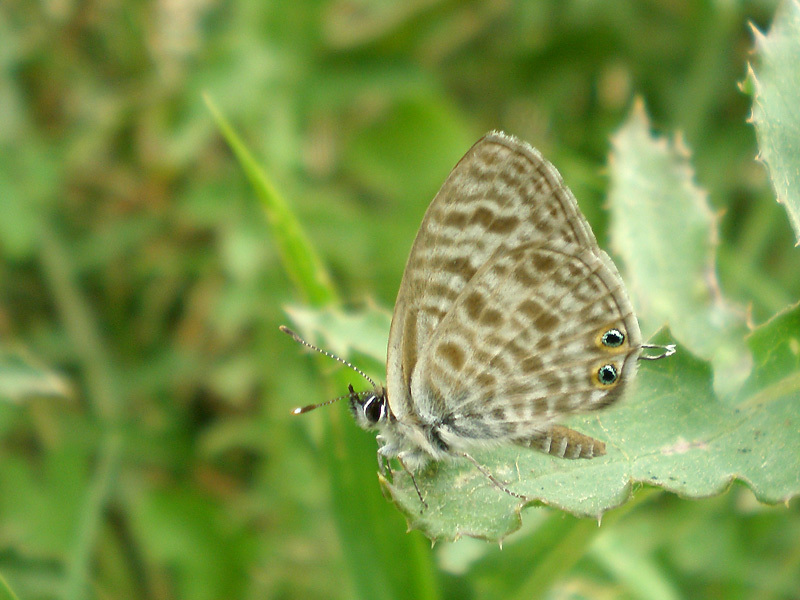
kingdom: Animalia
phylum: Arthropoda
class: Insecta
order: Lepidoptera
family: Lycaenidae
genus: Leptotes
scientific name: Leptotes pirithous
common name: Lang's short-tailed blue
